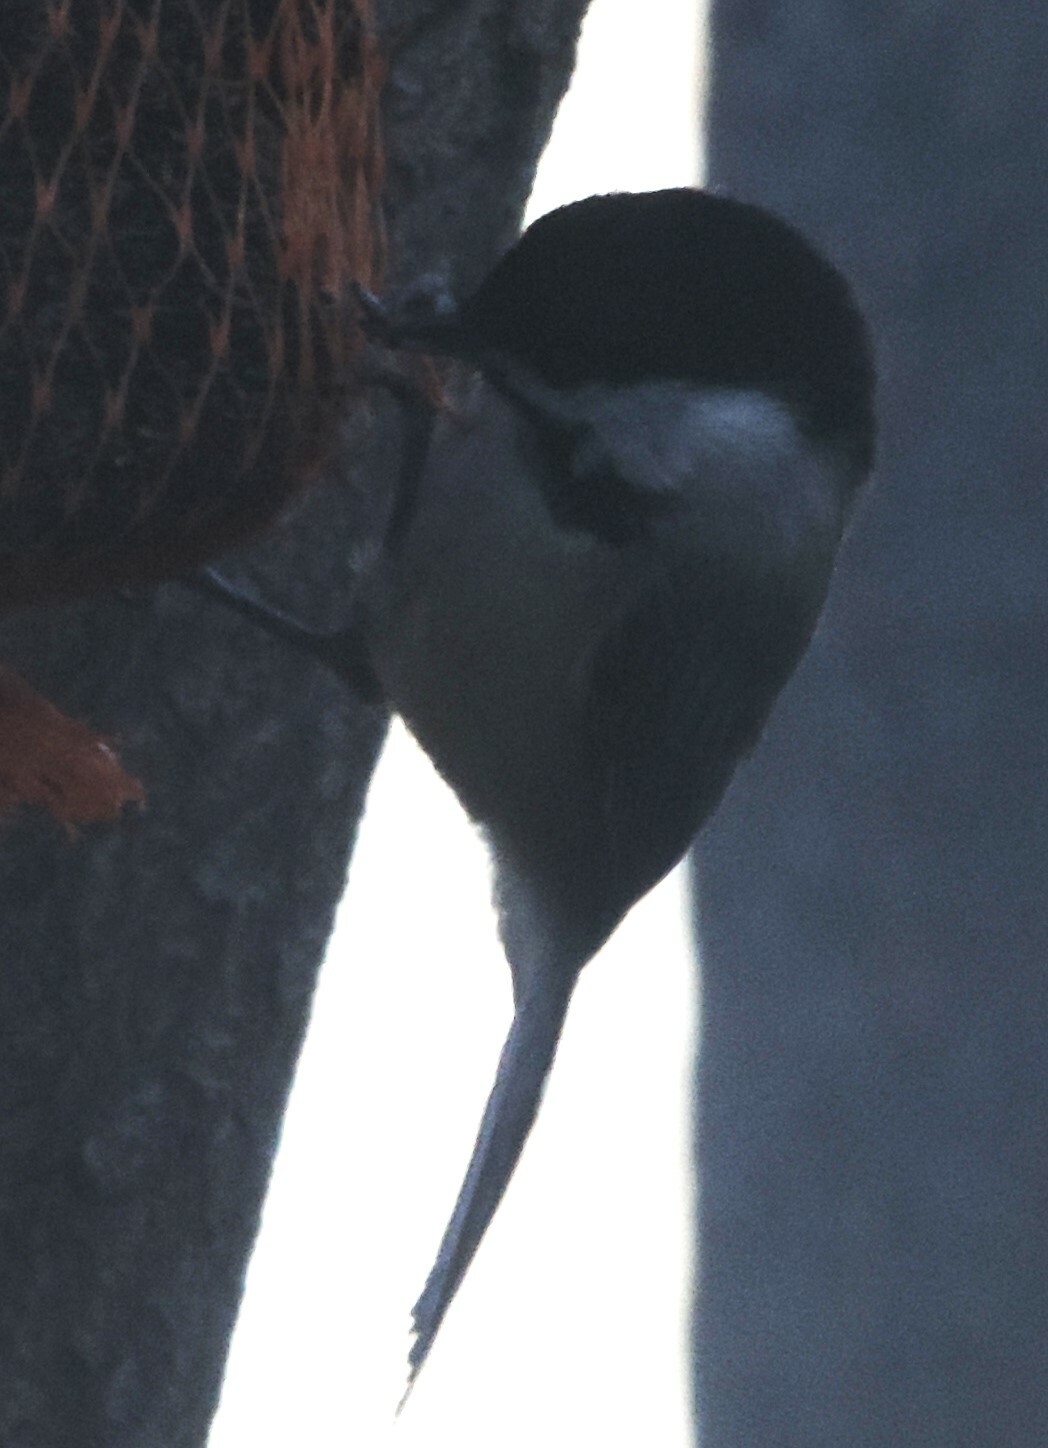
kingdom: Animalia
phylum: Chordata
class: Aves
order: Passeriformes
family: Paridae
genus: Poecile
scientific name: Poecile atricapillus
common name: Black-capped chickadee
